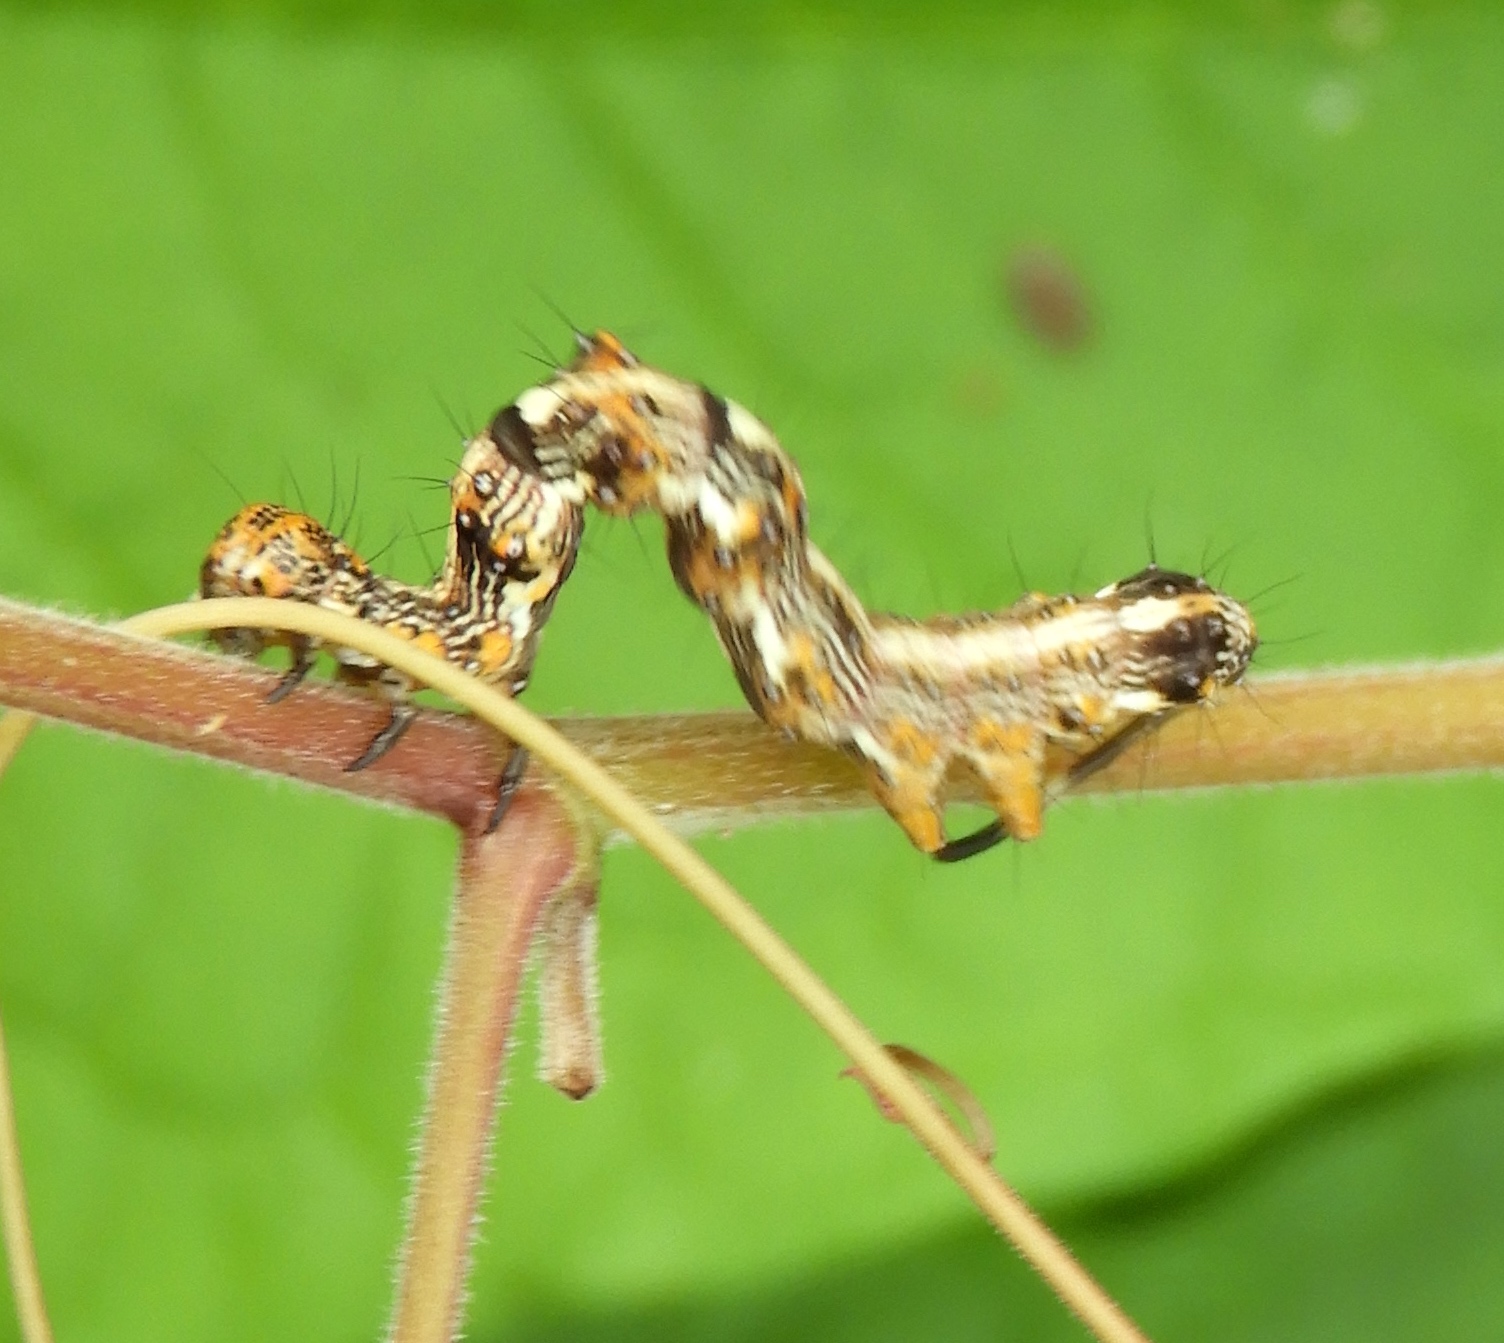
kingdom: Animalia
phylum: Arthropoda
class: Insecta
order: Lepidoptera
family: Erebidae
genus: Selenisa
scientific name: Selenisa sueroides
